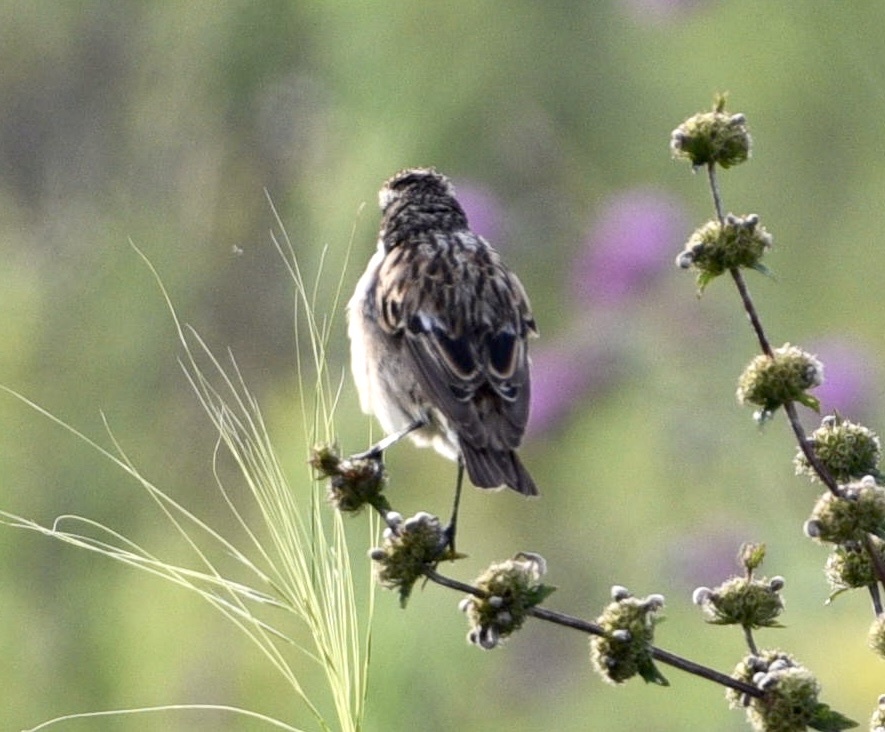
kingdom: Animalia
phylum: Chordata
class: Aves
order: Passeriformes
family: Muscicapidae
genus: Saxicola
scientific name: Saxicola rubetra
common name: Whinchat
